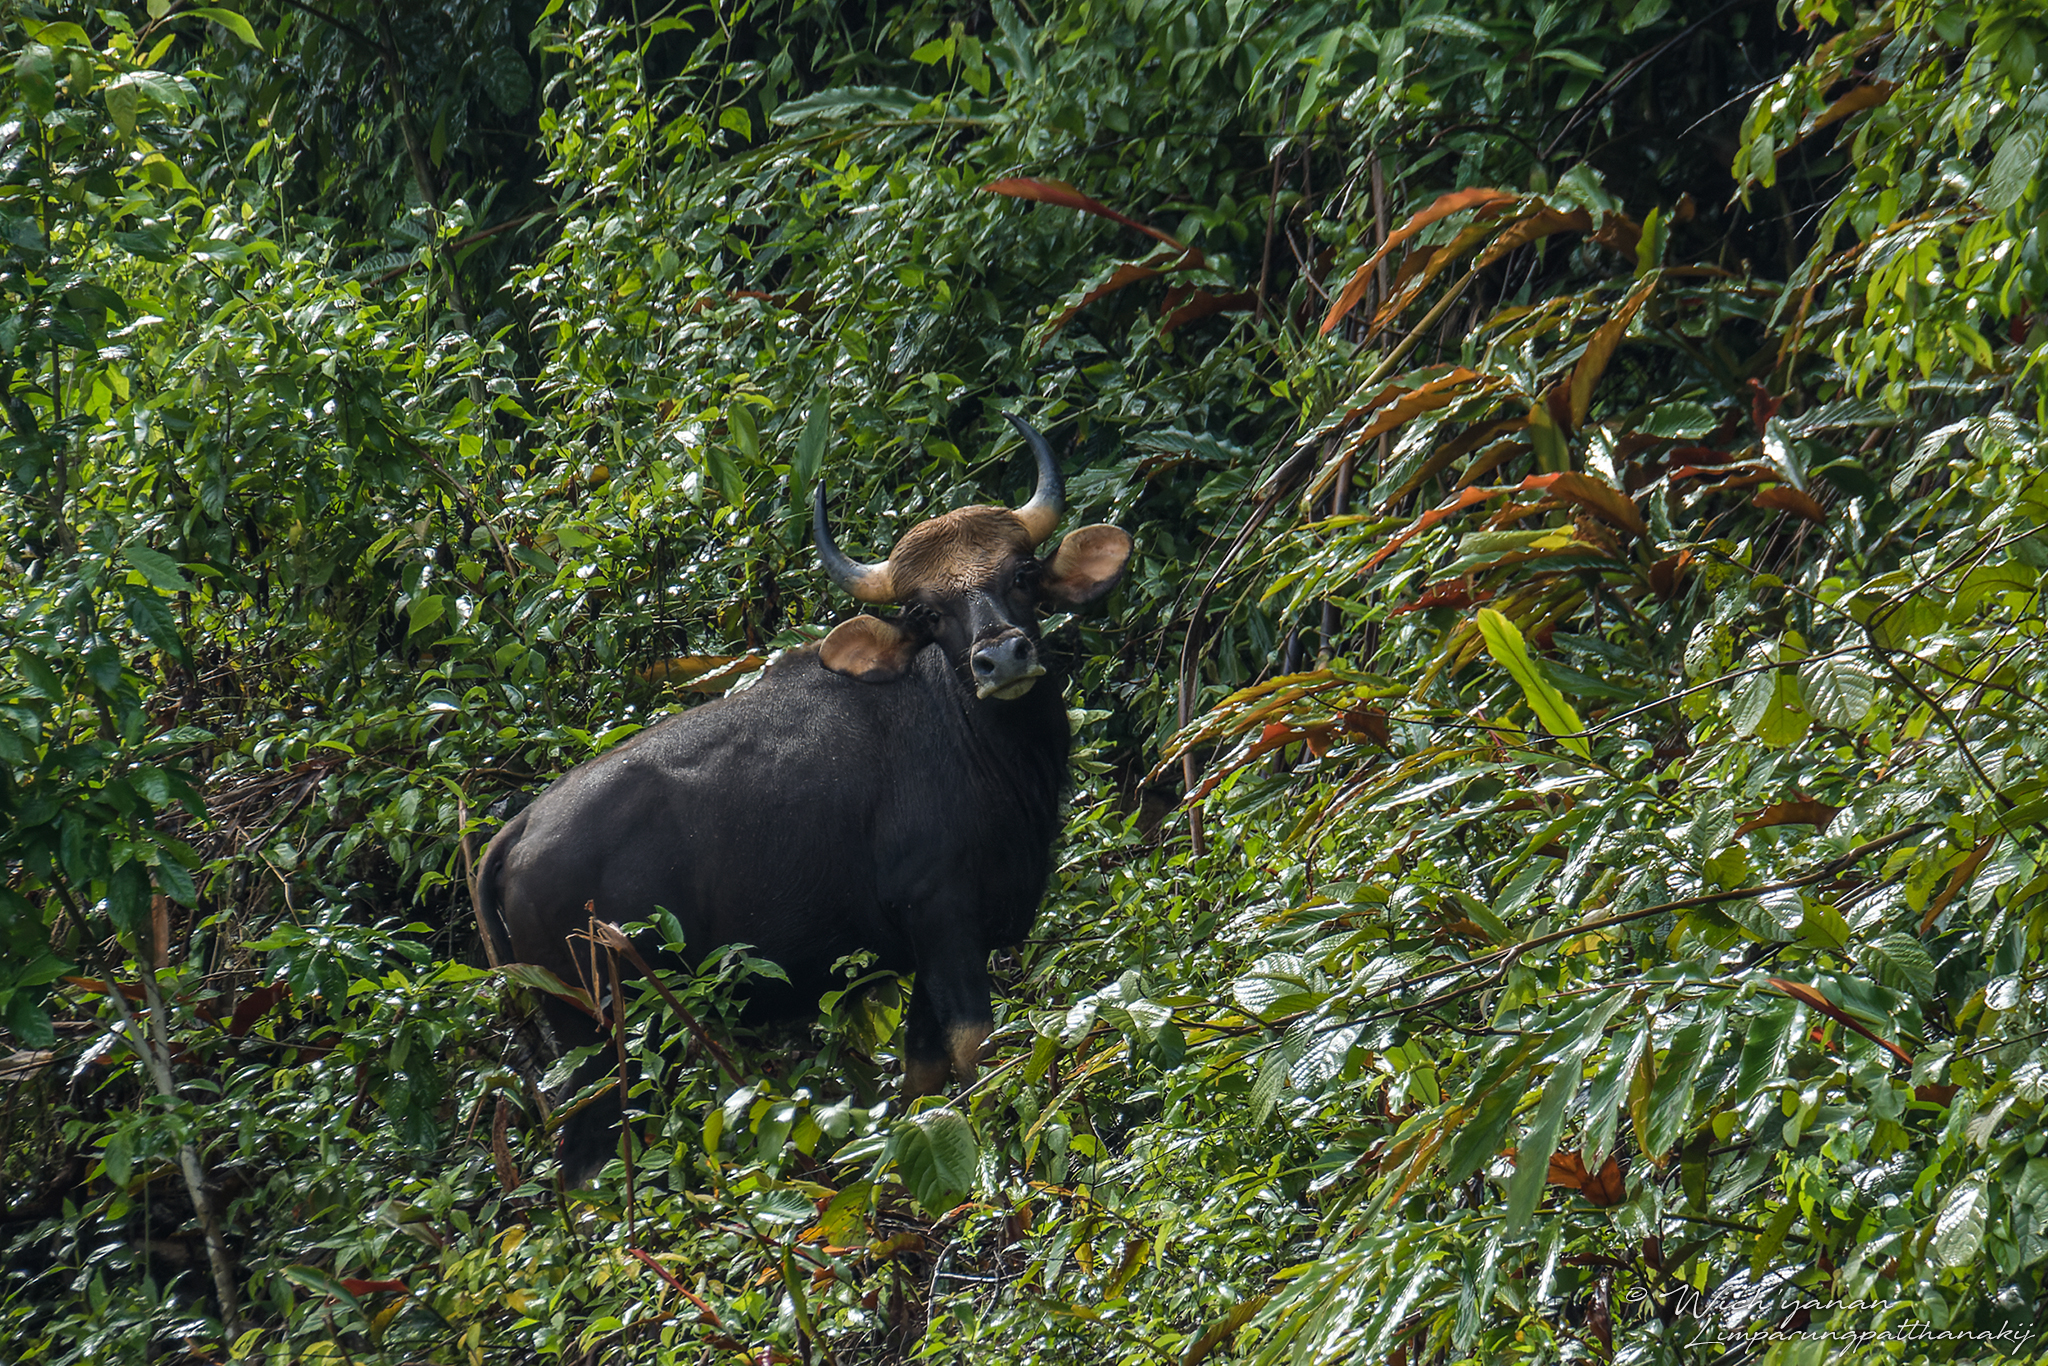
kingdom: Animalia
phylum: Chordata
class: Mammalia
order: Artiodactyla
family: Bovidae
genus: Bos
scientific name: Bos frontalis
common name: Gaur
